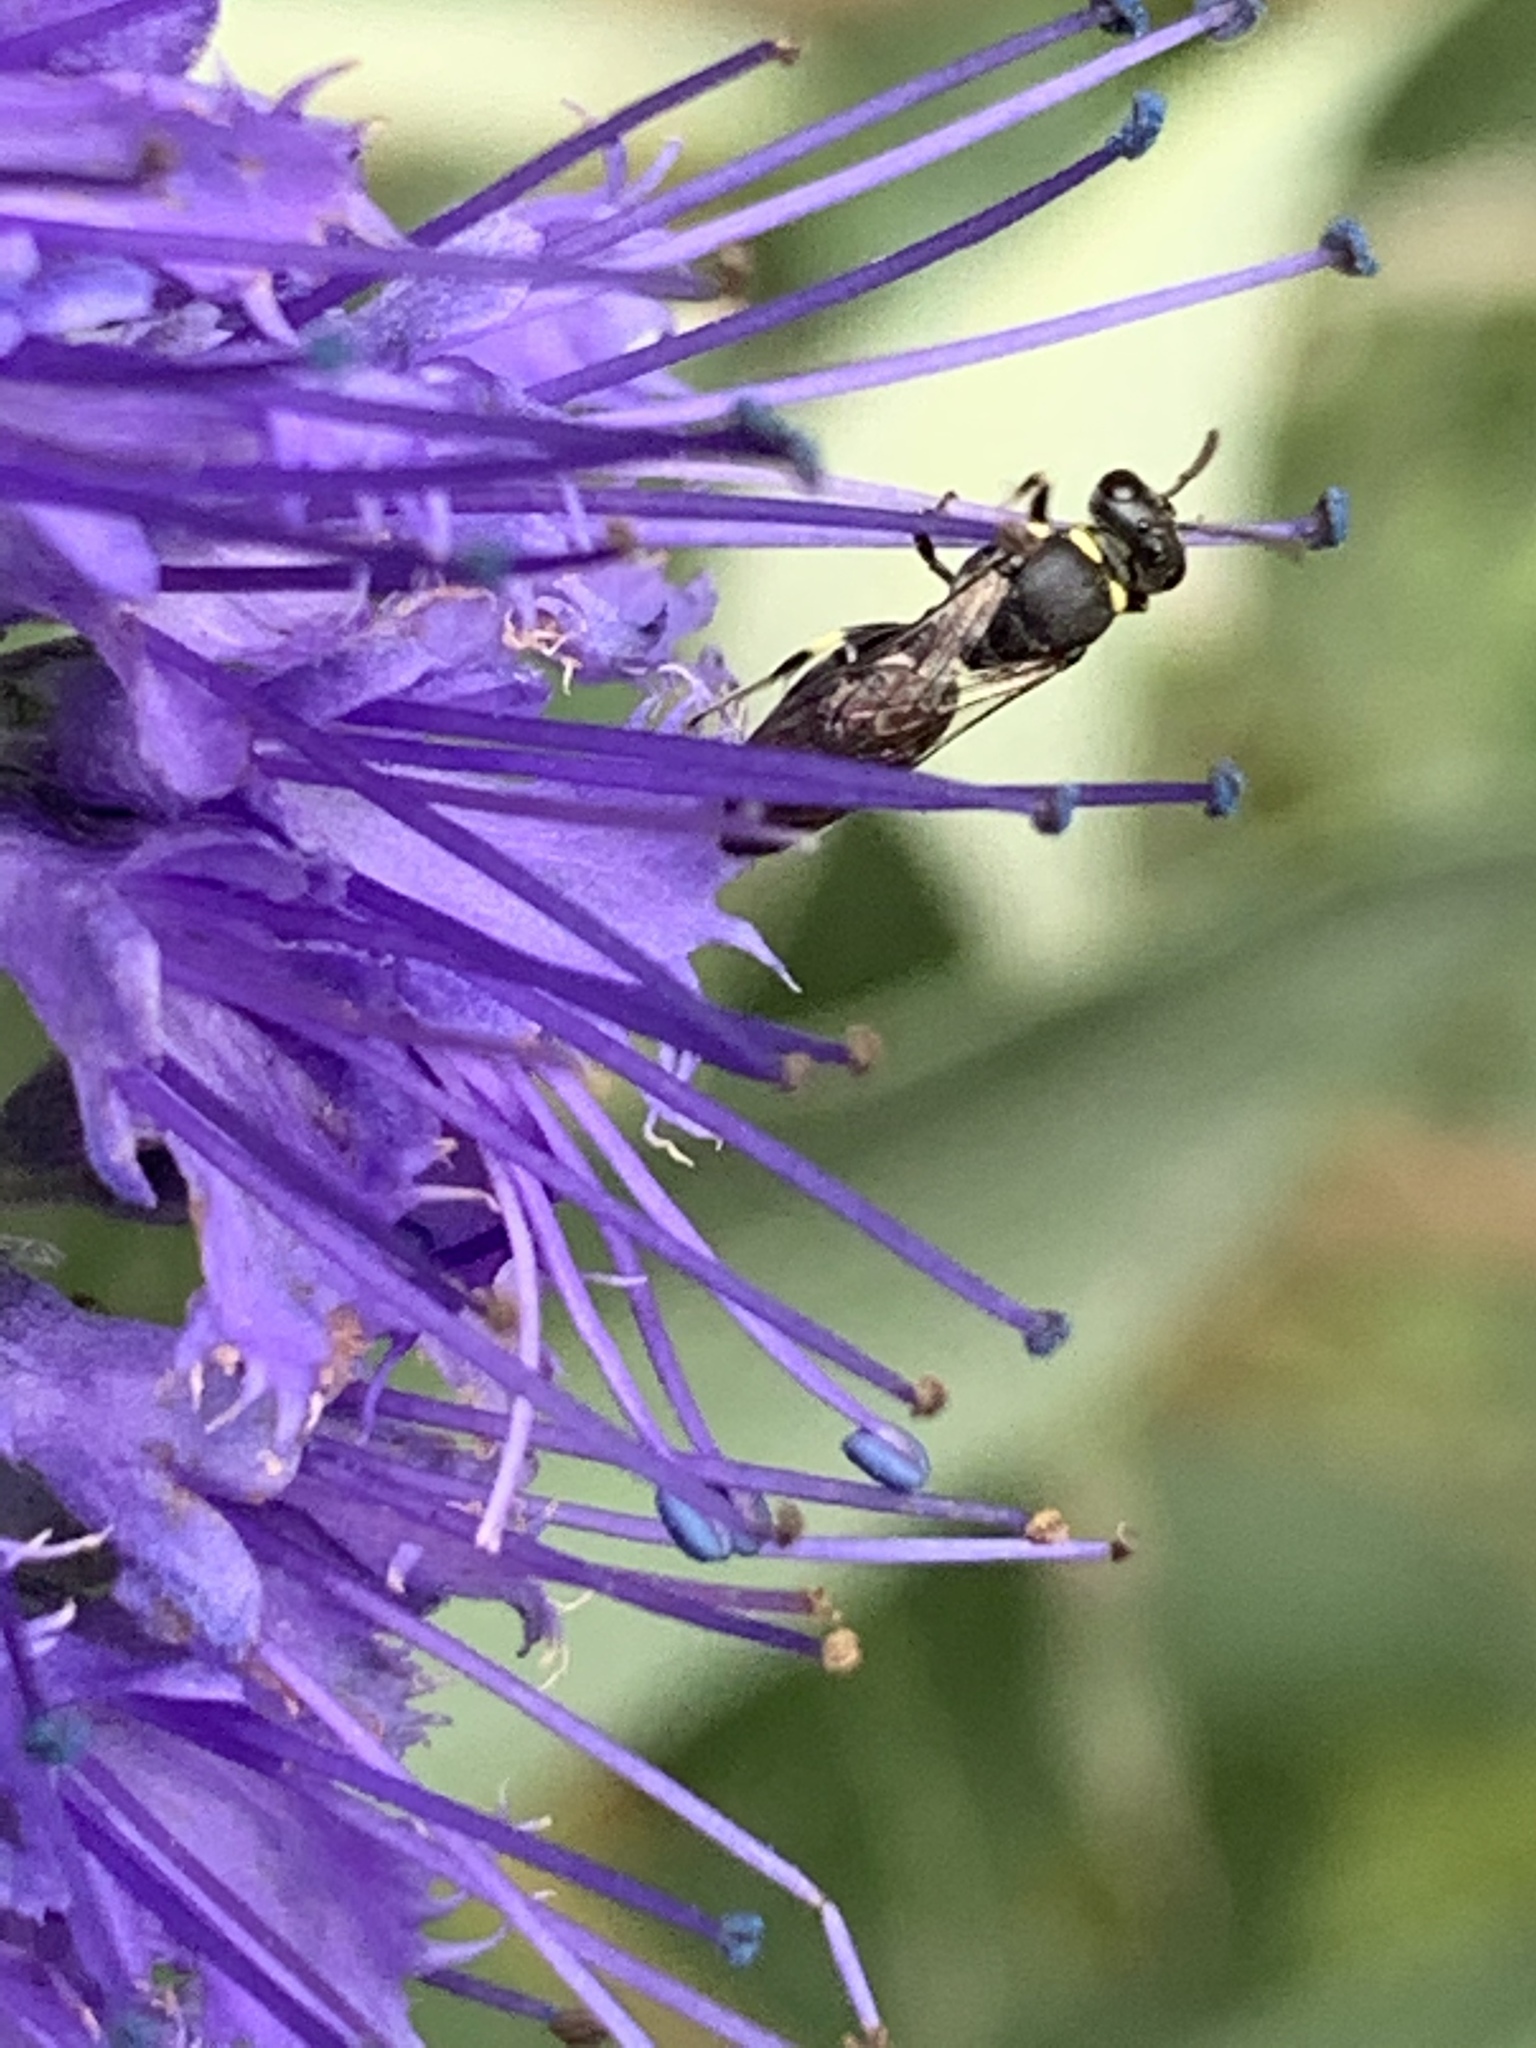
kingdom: Animalia
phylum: Arthropoda
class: Insecta
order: Hymenoptera
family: Colletidae
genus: Hylaeus
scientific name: Hylaeus modestus
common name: Yellow-faced bee
